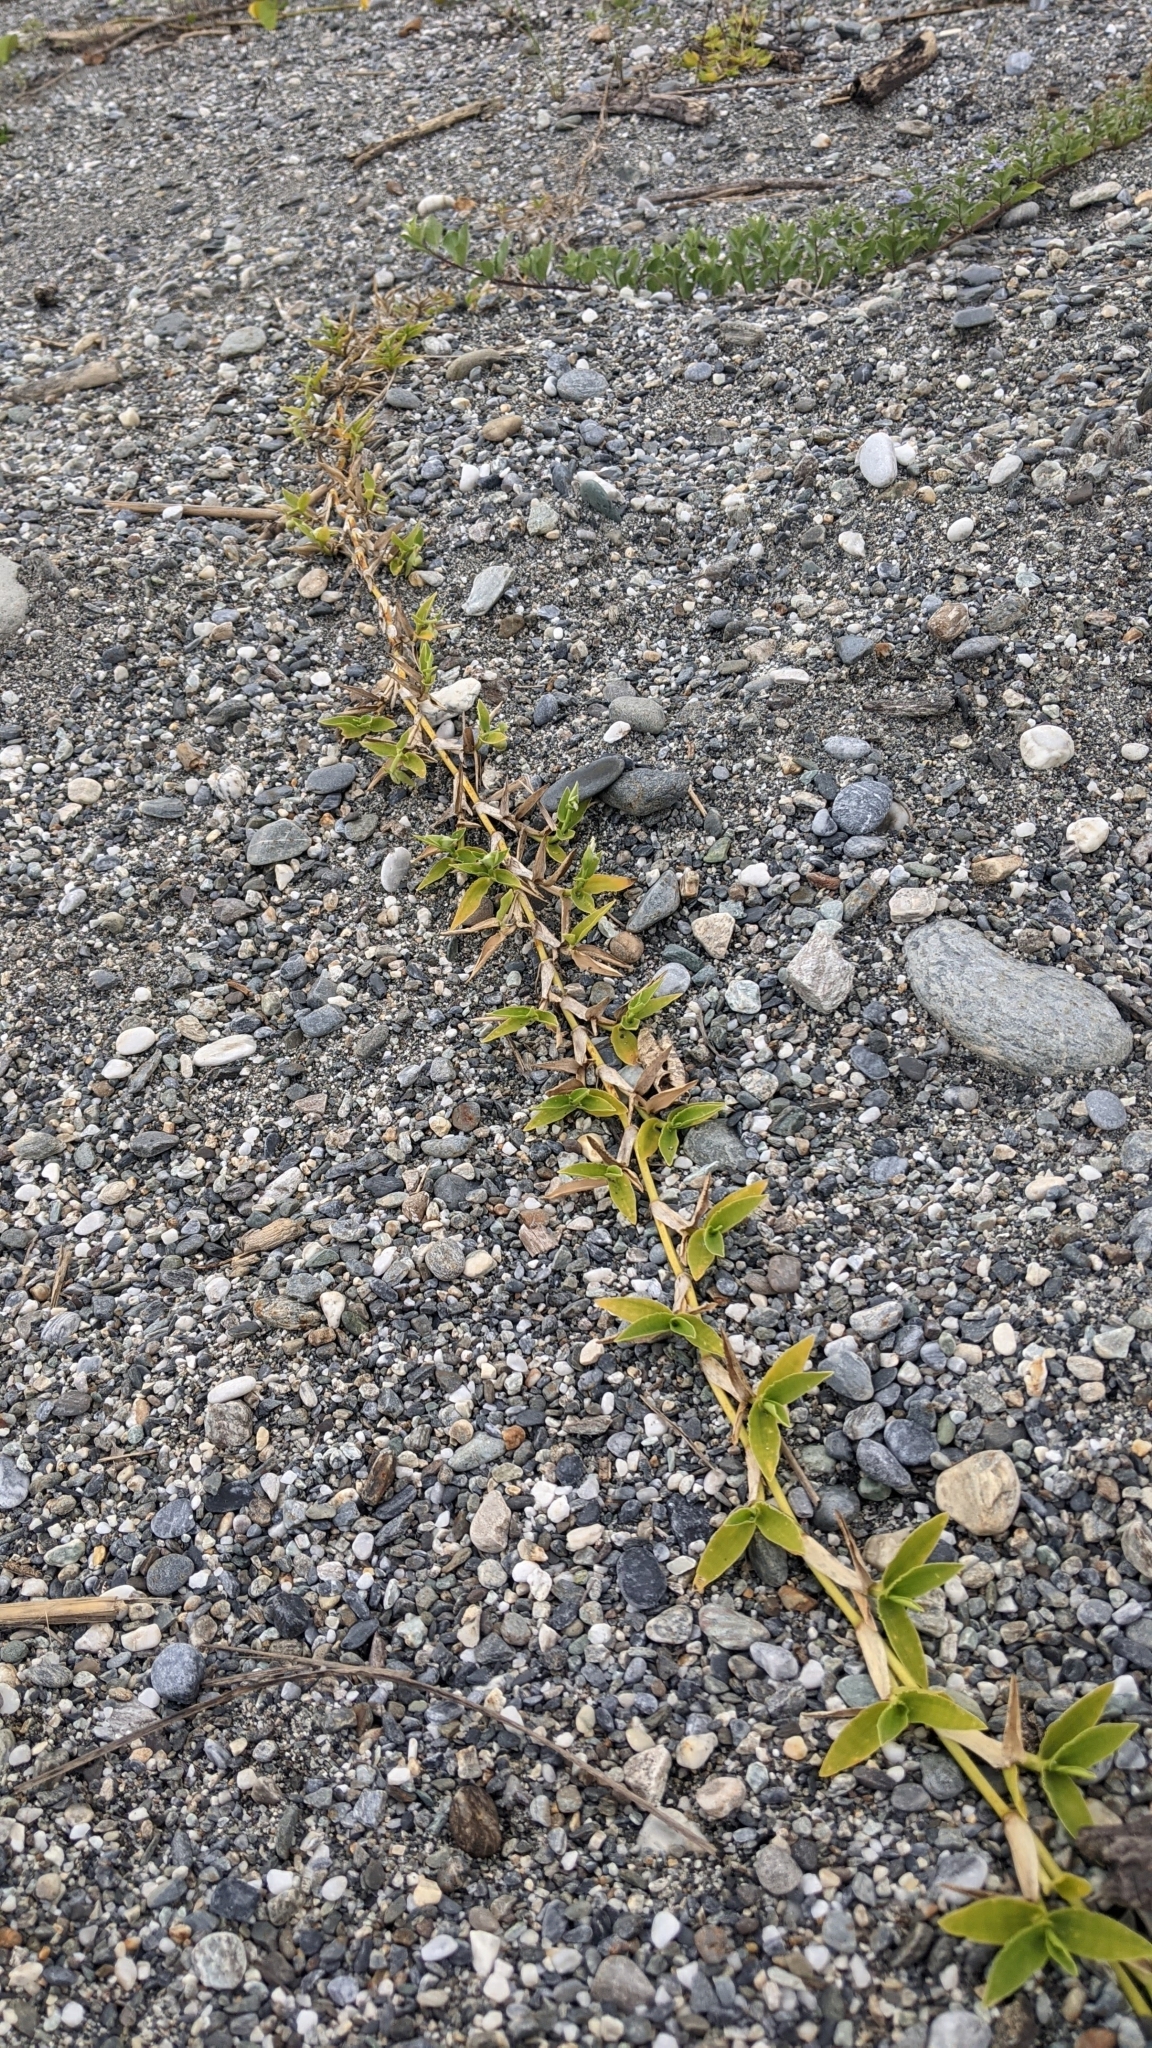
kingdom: Plantae
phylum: Tracheophyta
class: Liliopsida
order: Poales
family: Poaceae
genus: Thuarea
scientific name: Thuarea involuta
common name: Tropical beach grass
